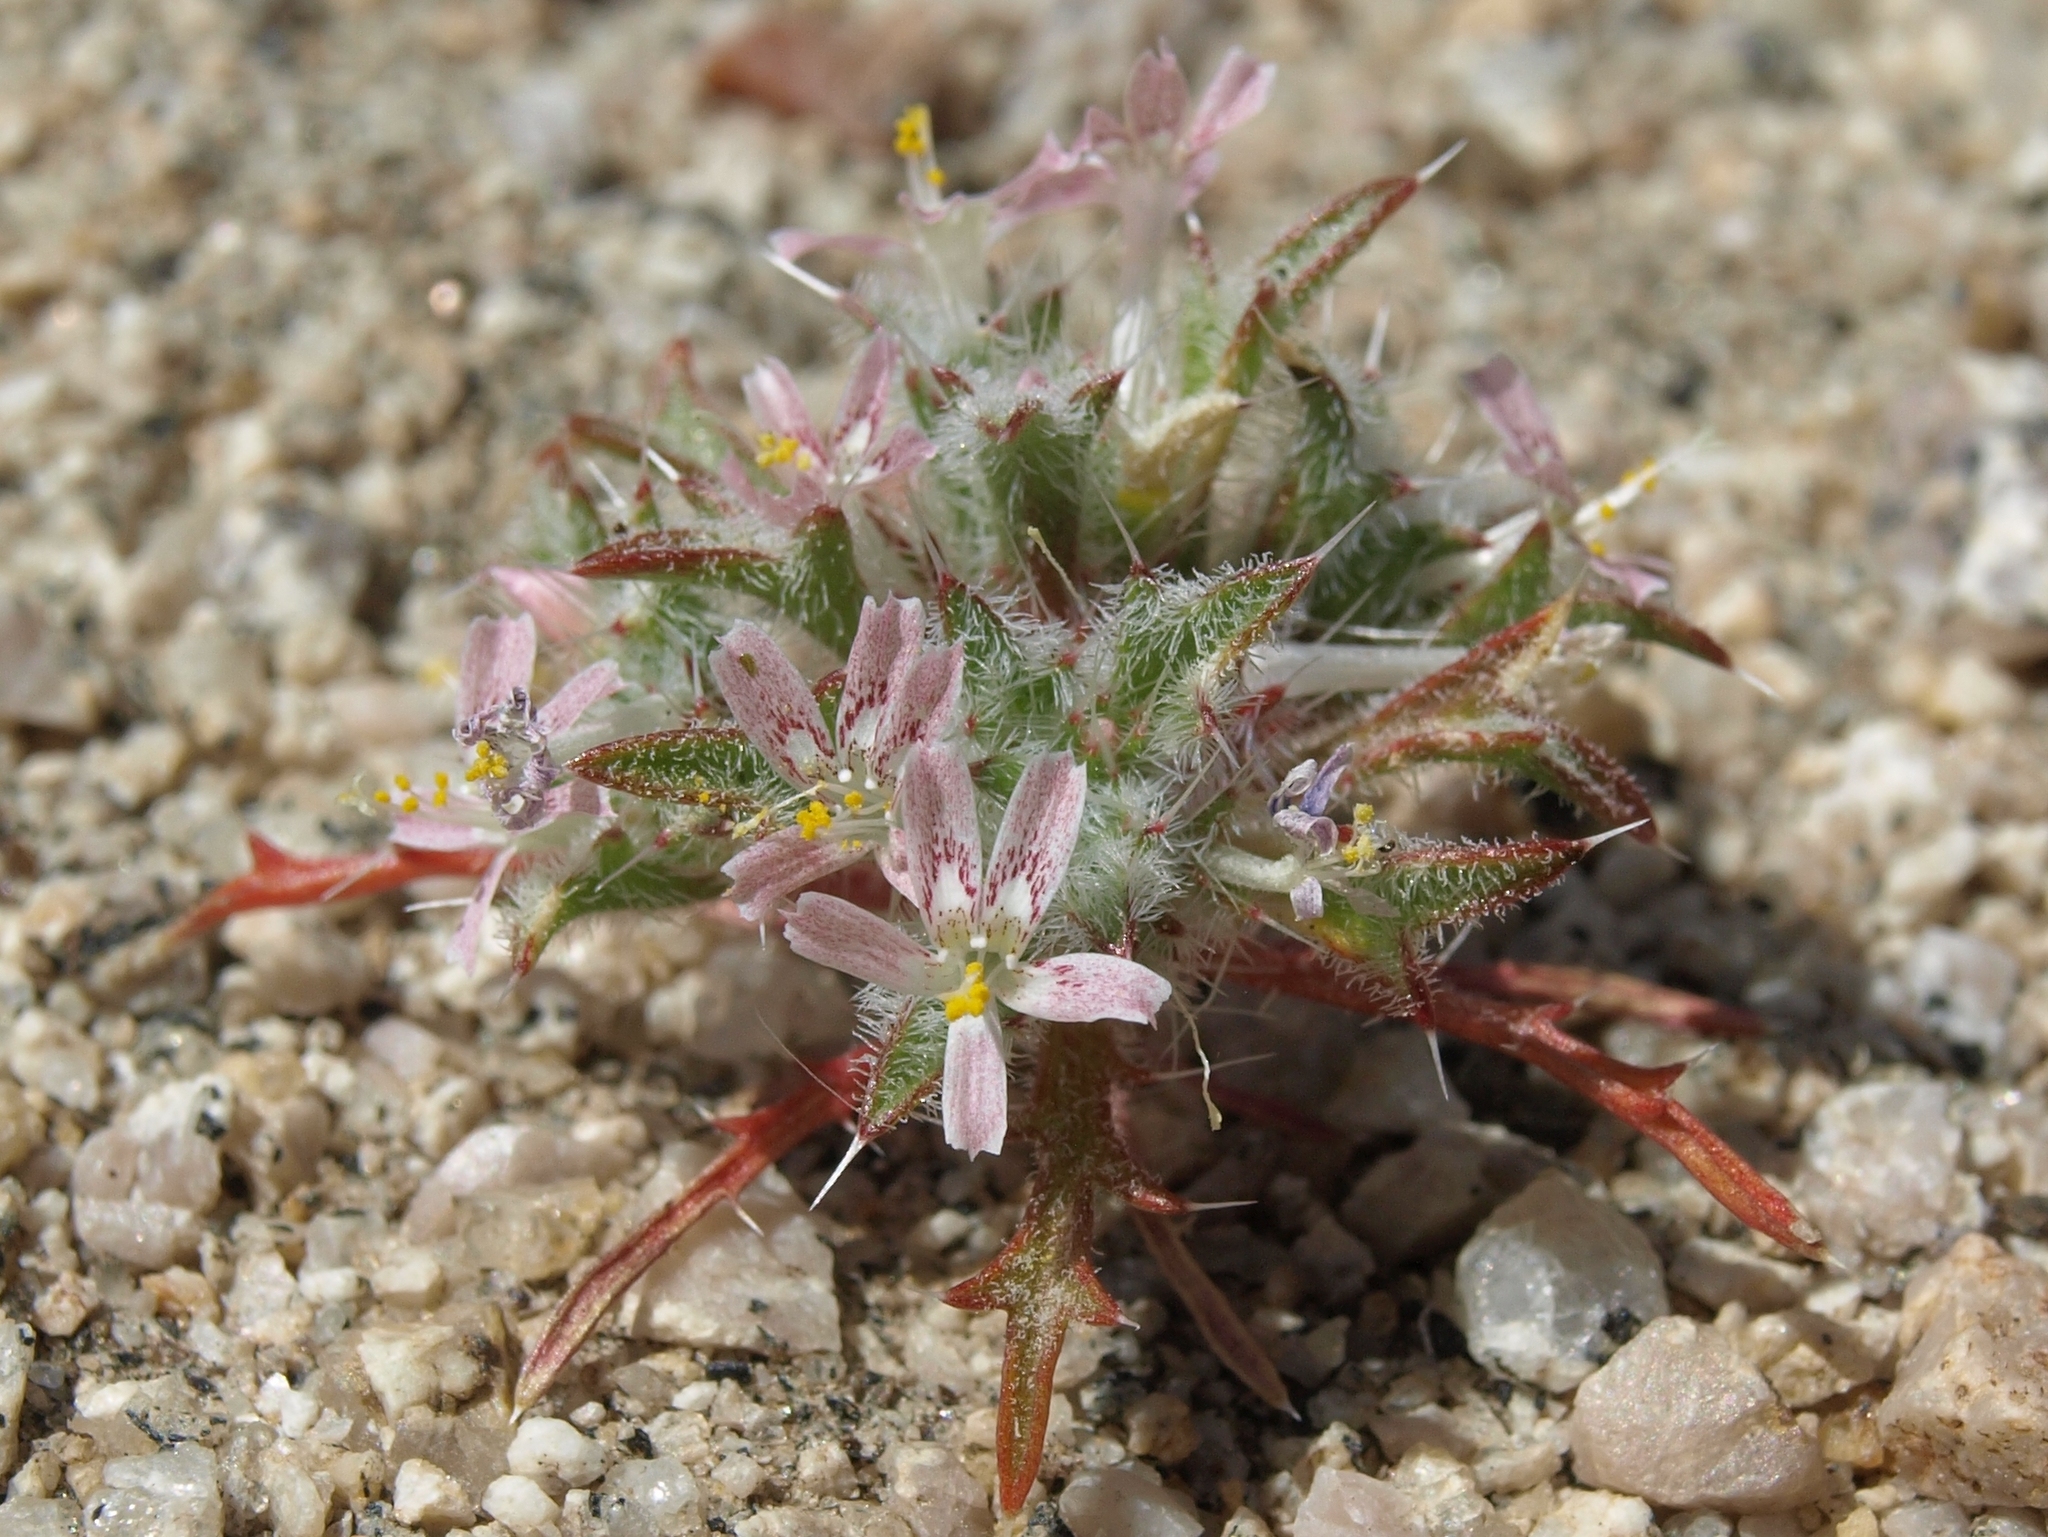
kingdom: Plantae
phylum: Tracheophyta
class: Magnoliopsida
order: Ericales
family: Polemoniaceae
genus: Loeseliastrum
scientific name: Loeseliastrum matthewsii
